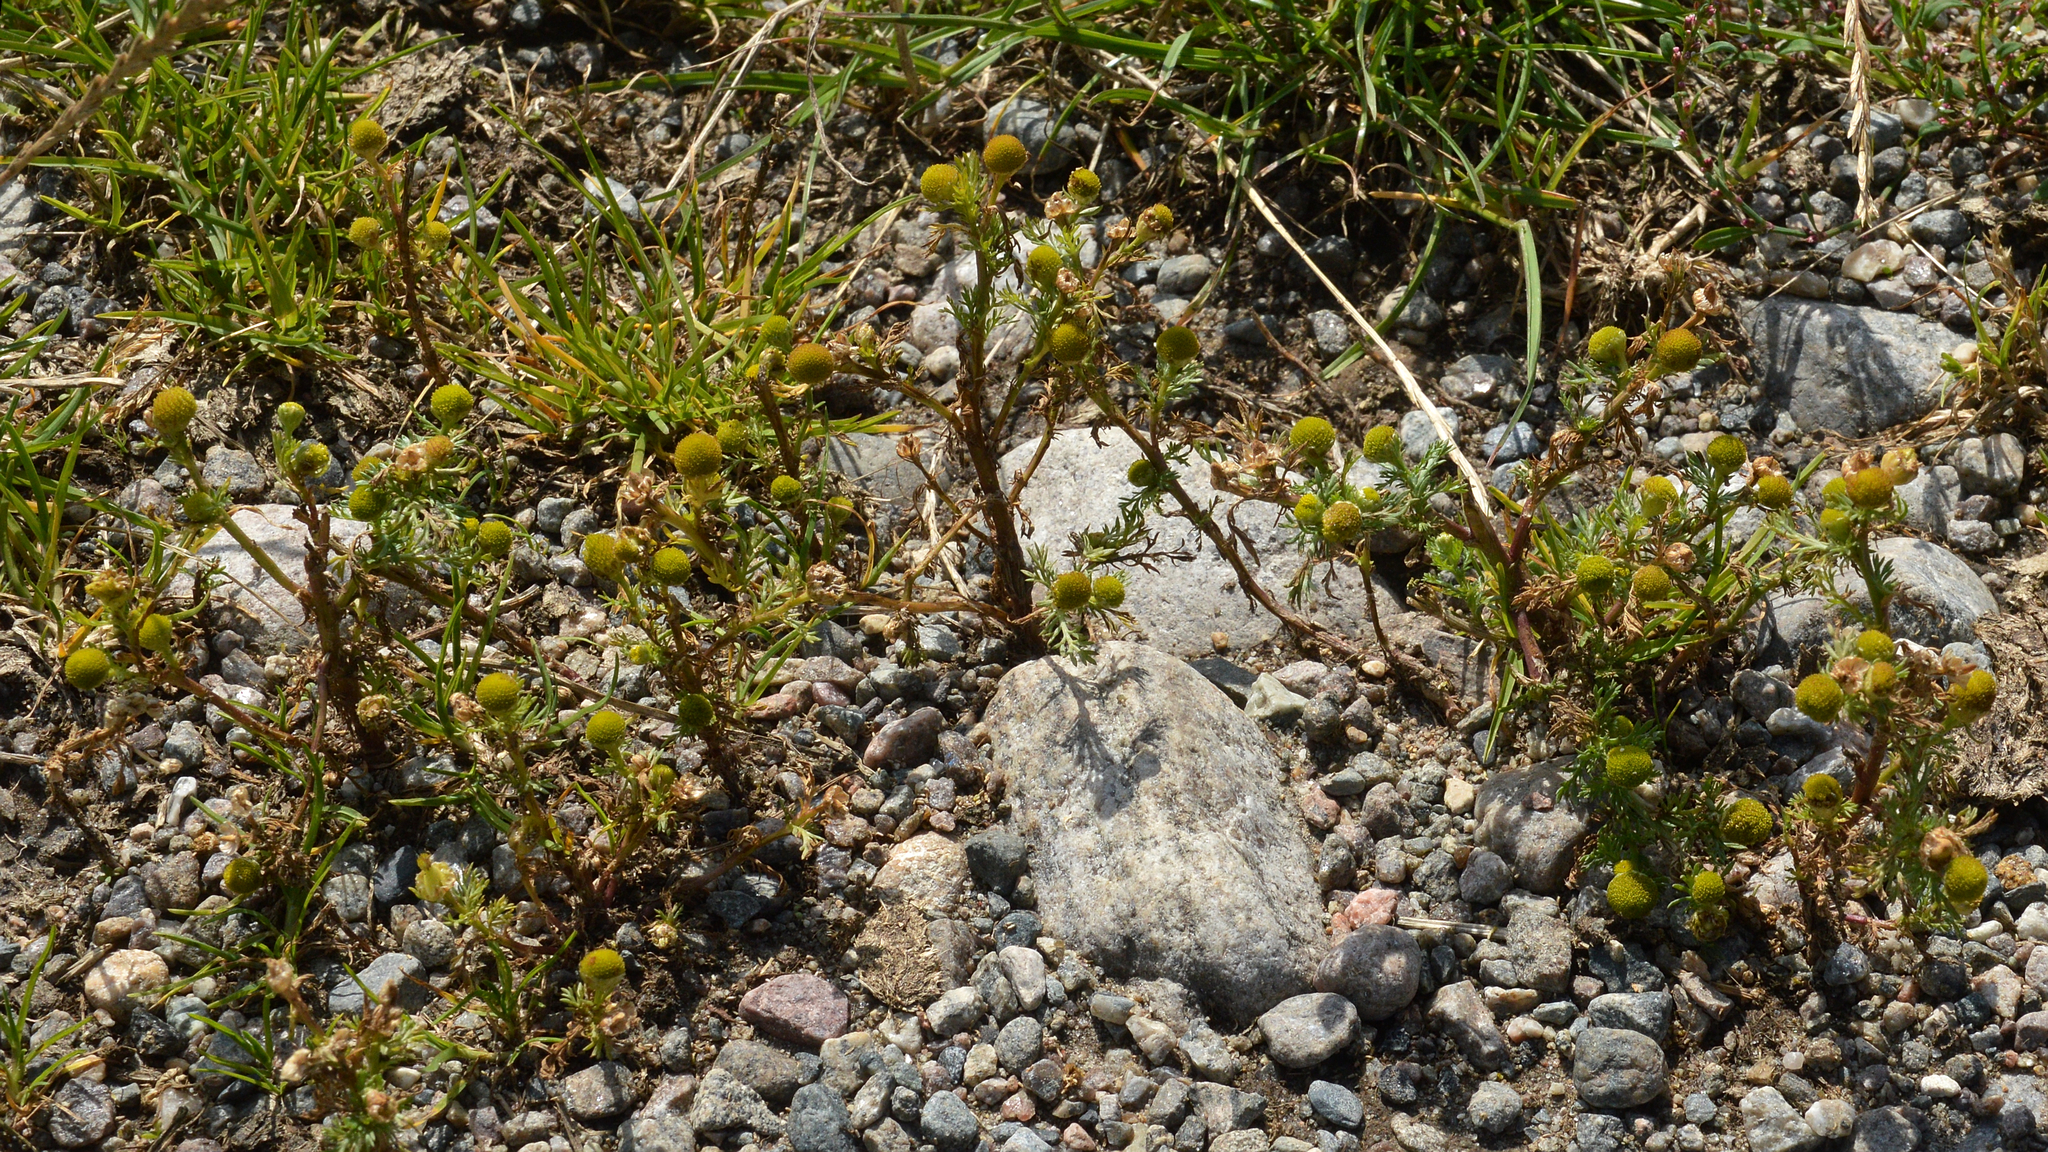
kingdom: Plantae
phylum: Tracheophyta
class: Magnoliopsida
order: Asterales
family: Asteraceae
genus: Matricaria
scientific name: Matricaria discoidea
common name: Disc mayweed
